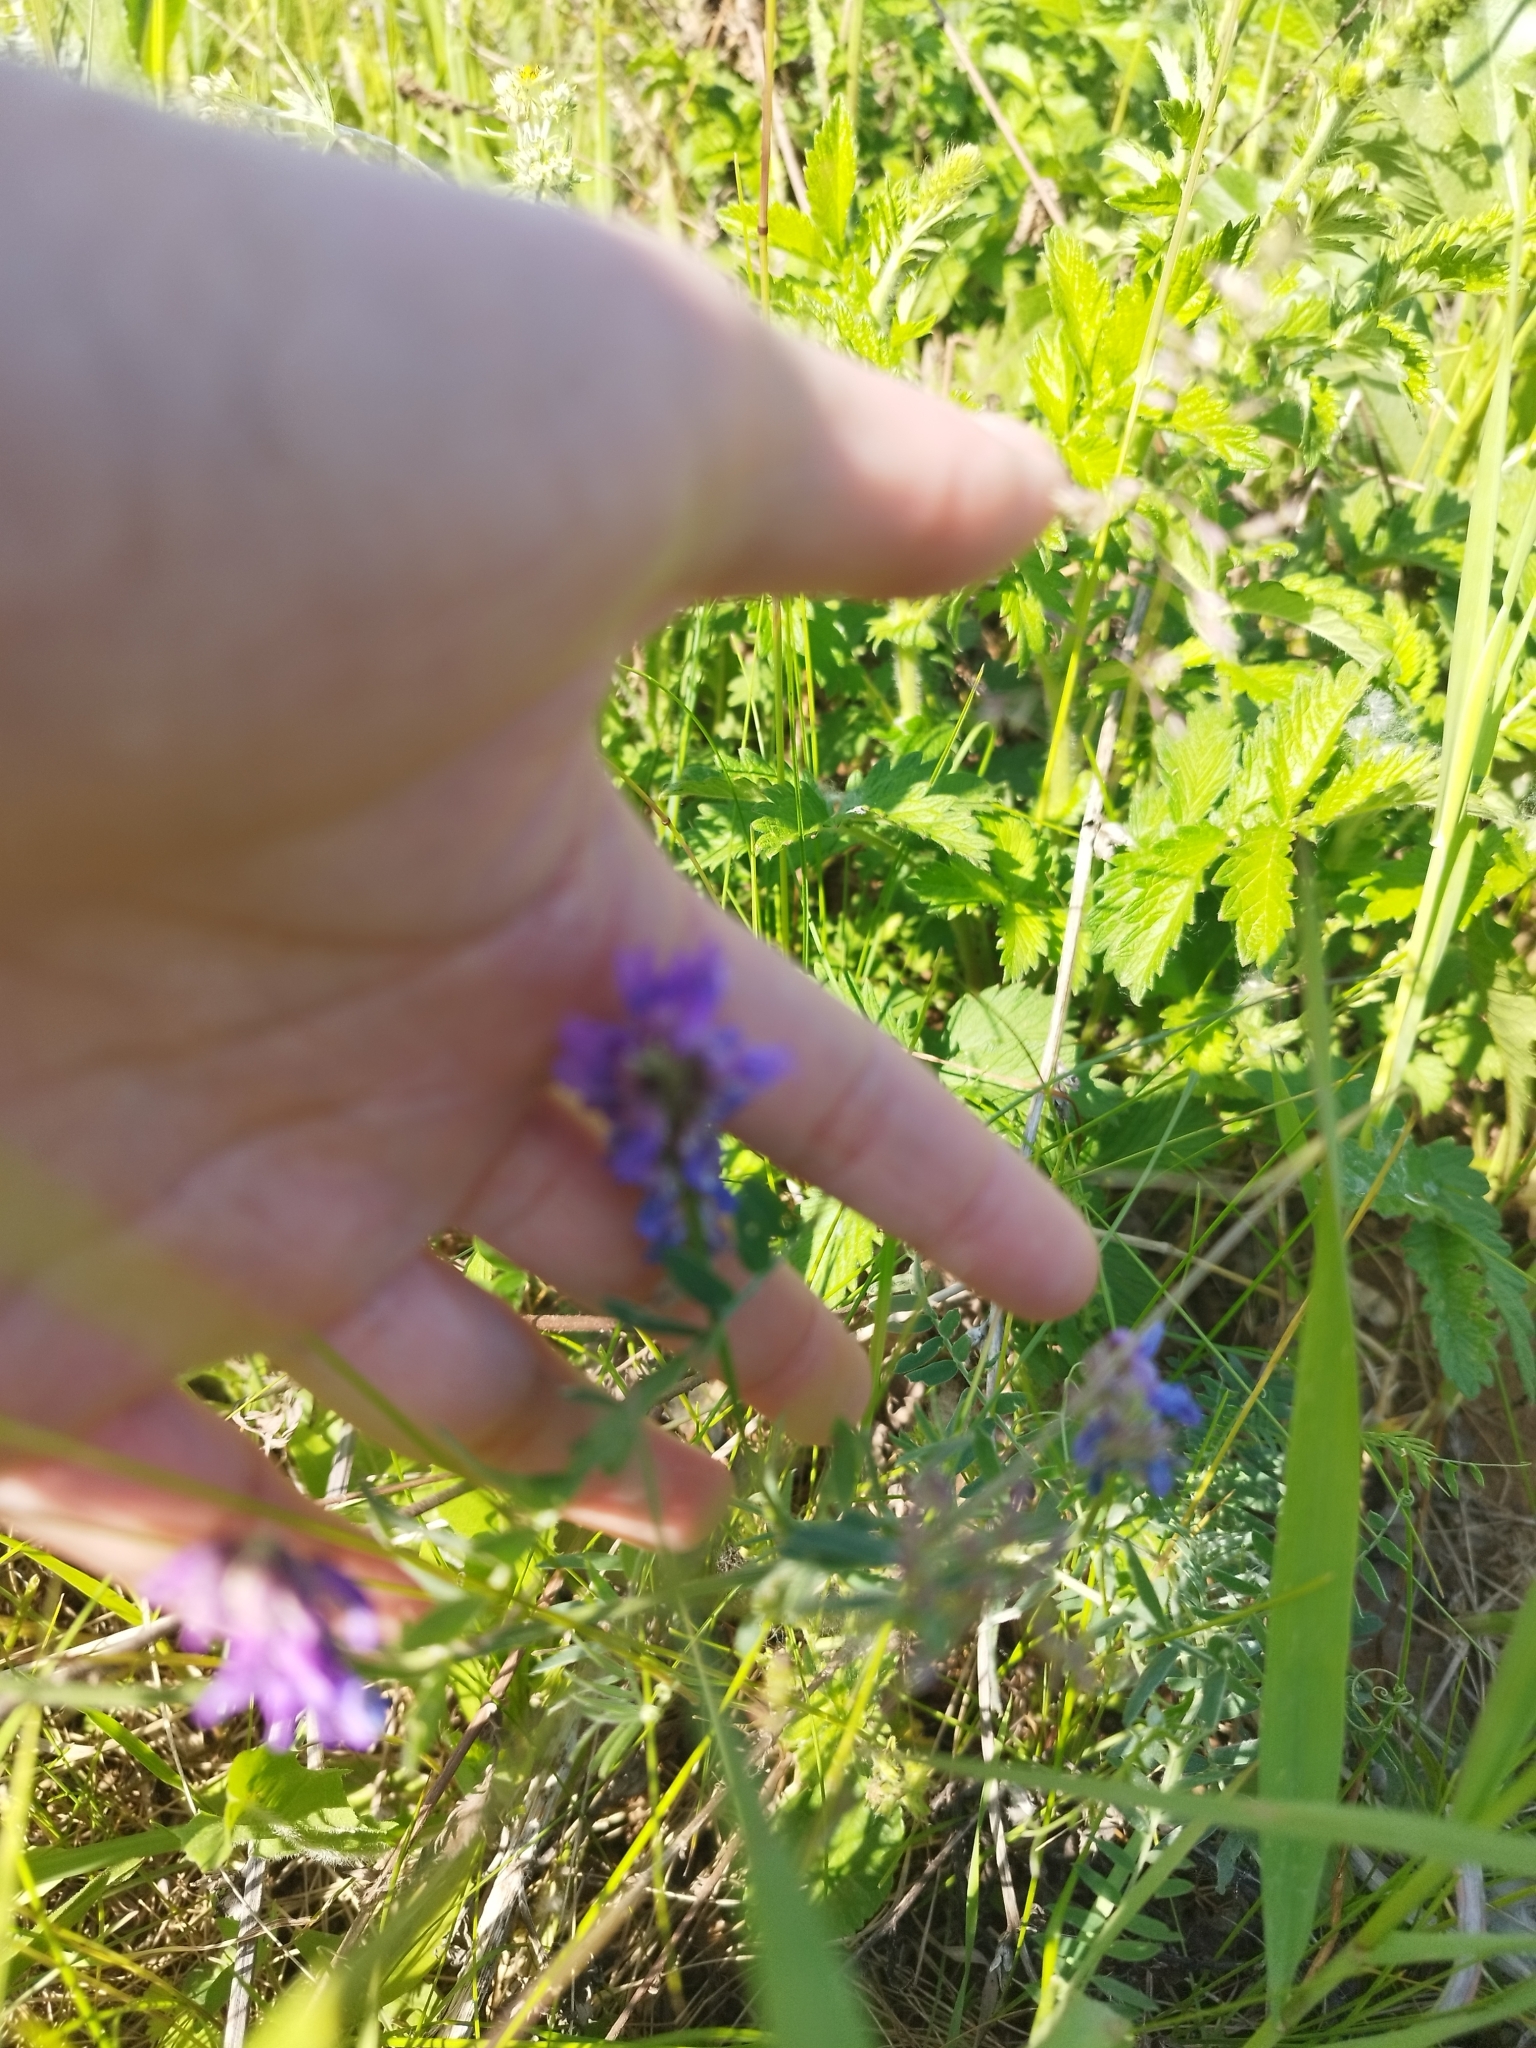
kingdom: Plantae
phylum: Tracheophyta
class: Magnoliopsida
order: Fabales
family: Fabaceae
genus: Vicia
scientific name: Vicia cracca
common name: Bird vetch
